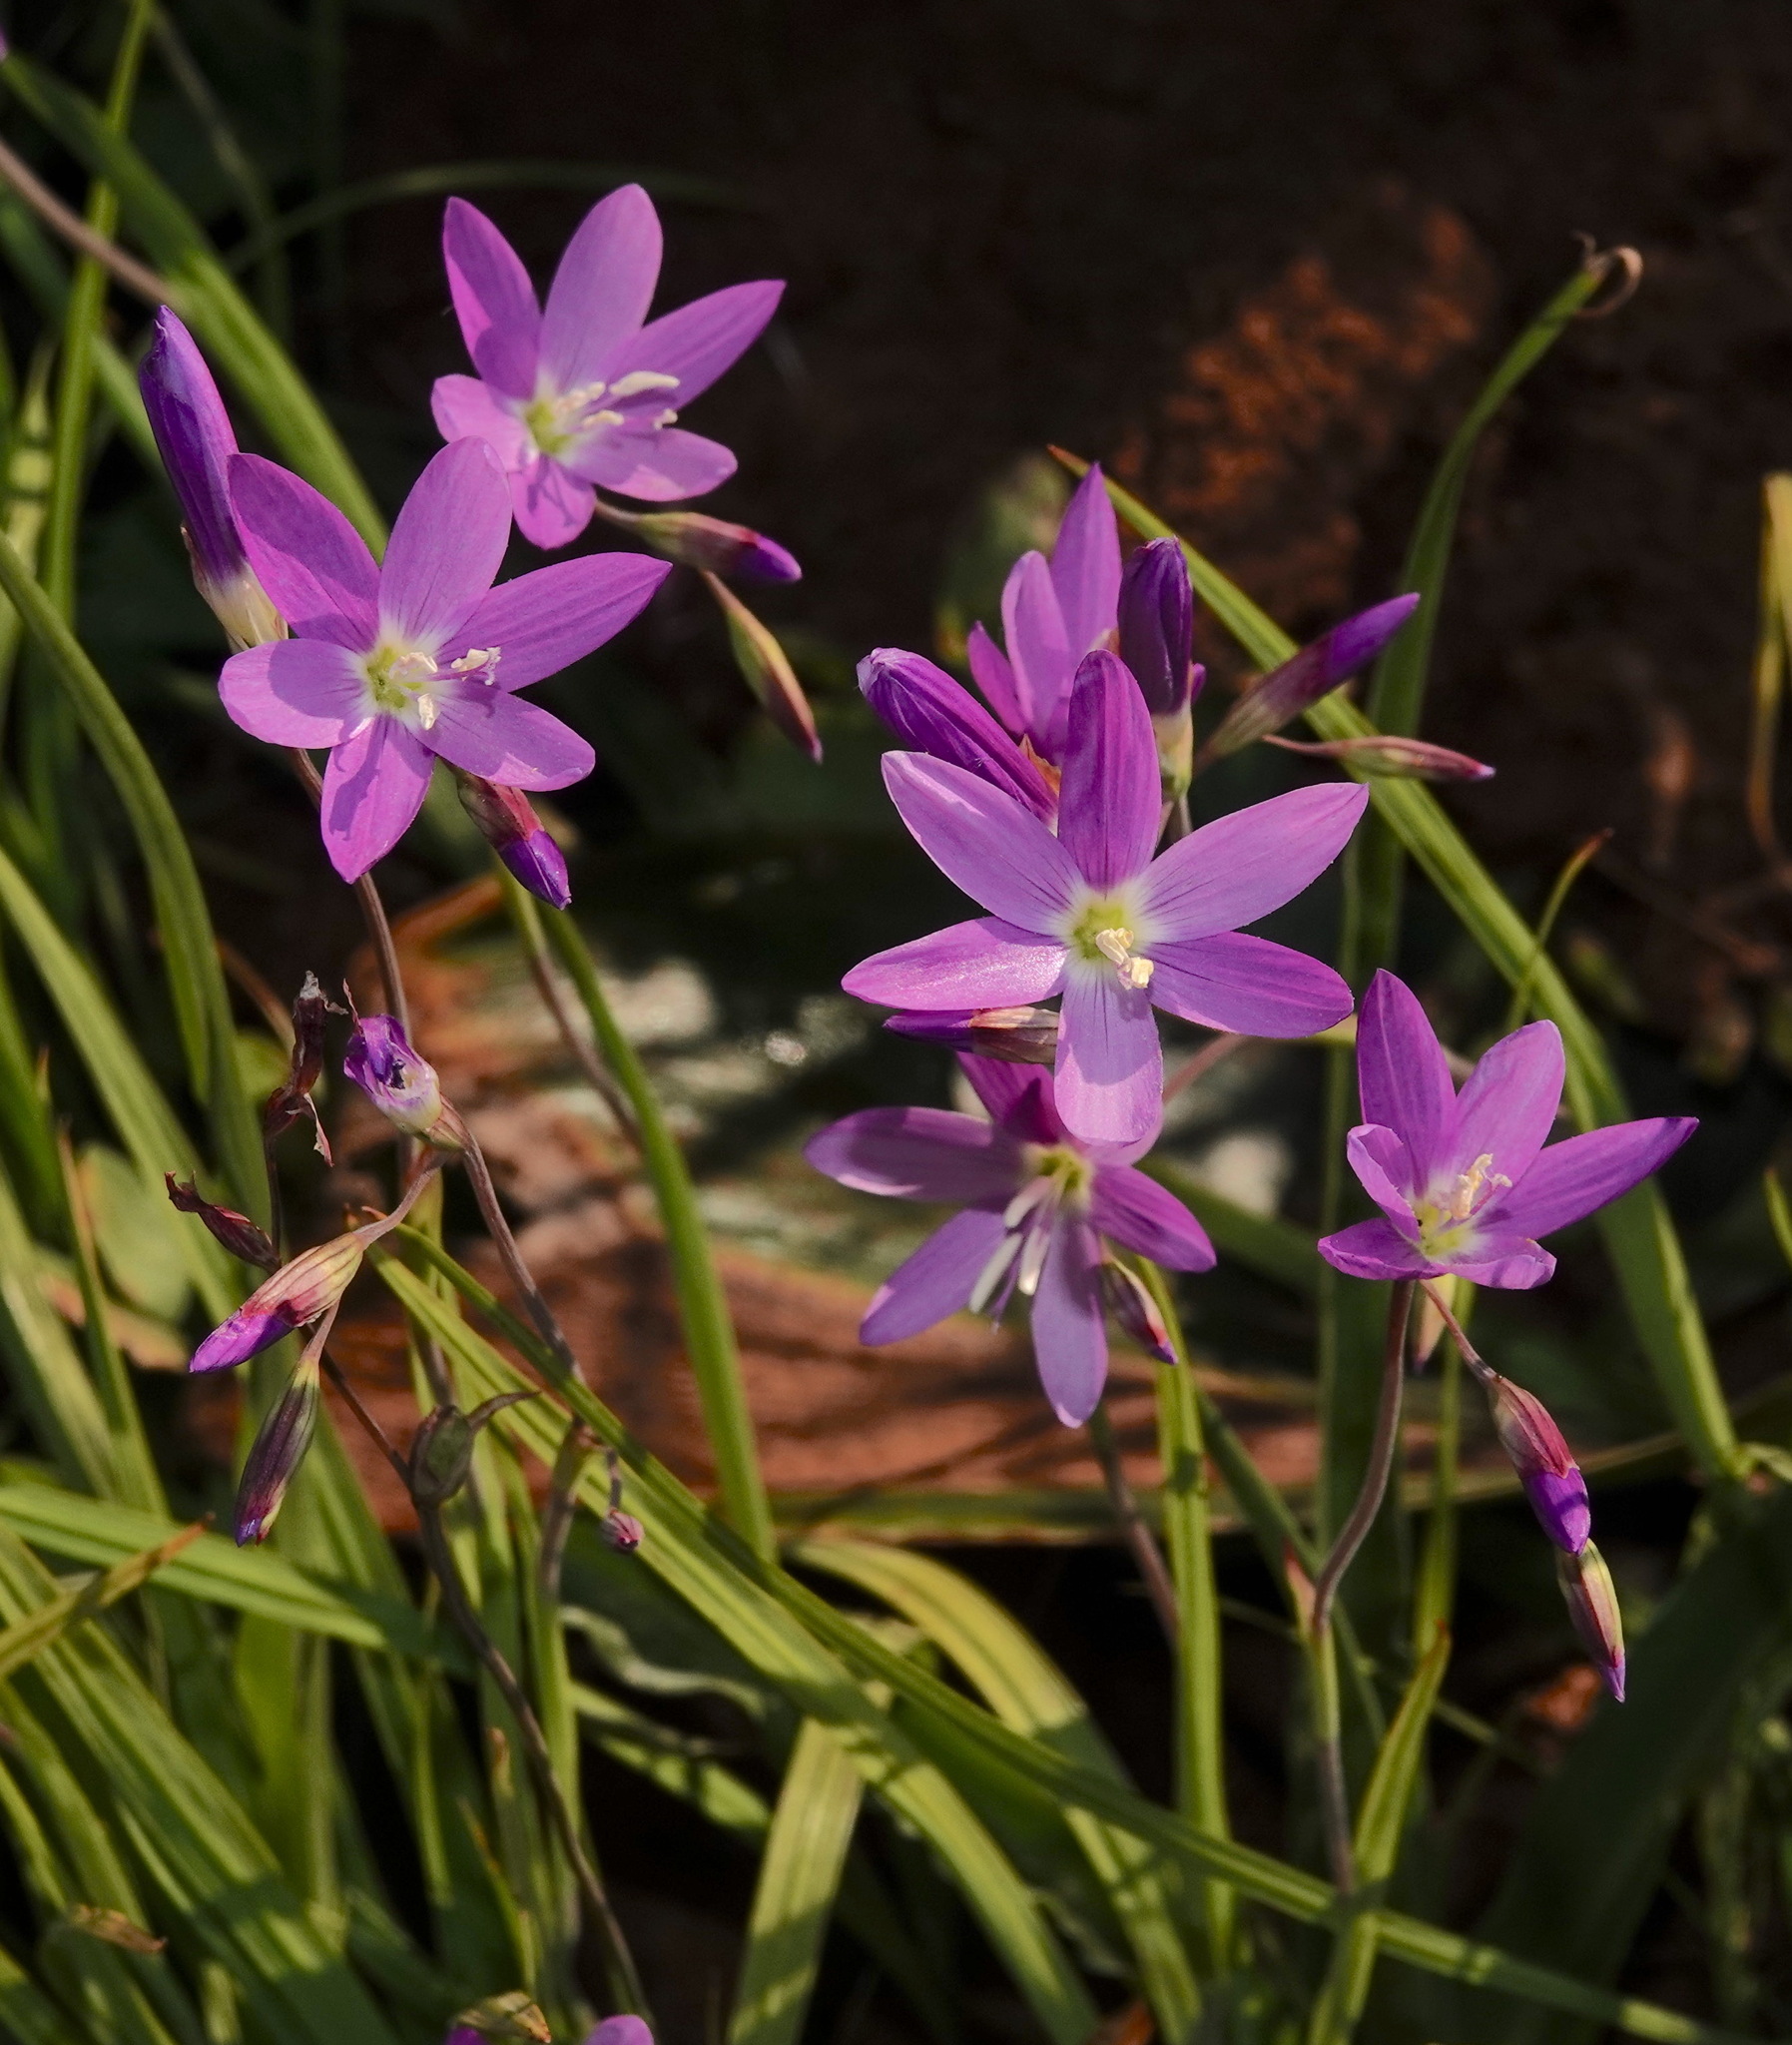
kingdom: Plantae
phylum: Tracheophyta
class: Liliopsida
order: Asparagales
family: Iridaceae
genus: Geissorhiza
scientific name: Geissorhiza inaequalis
